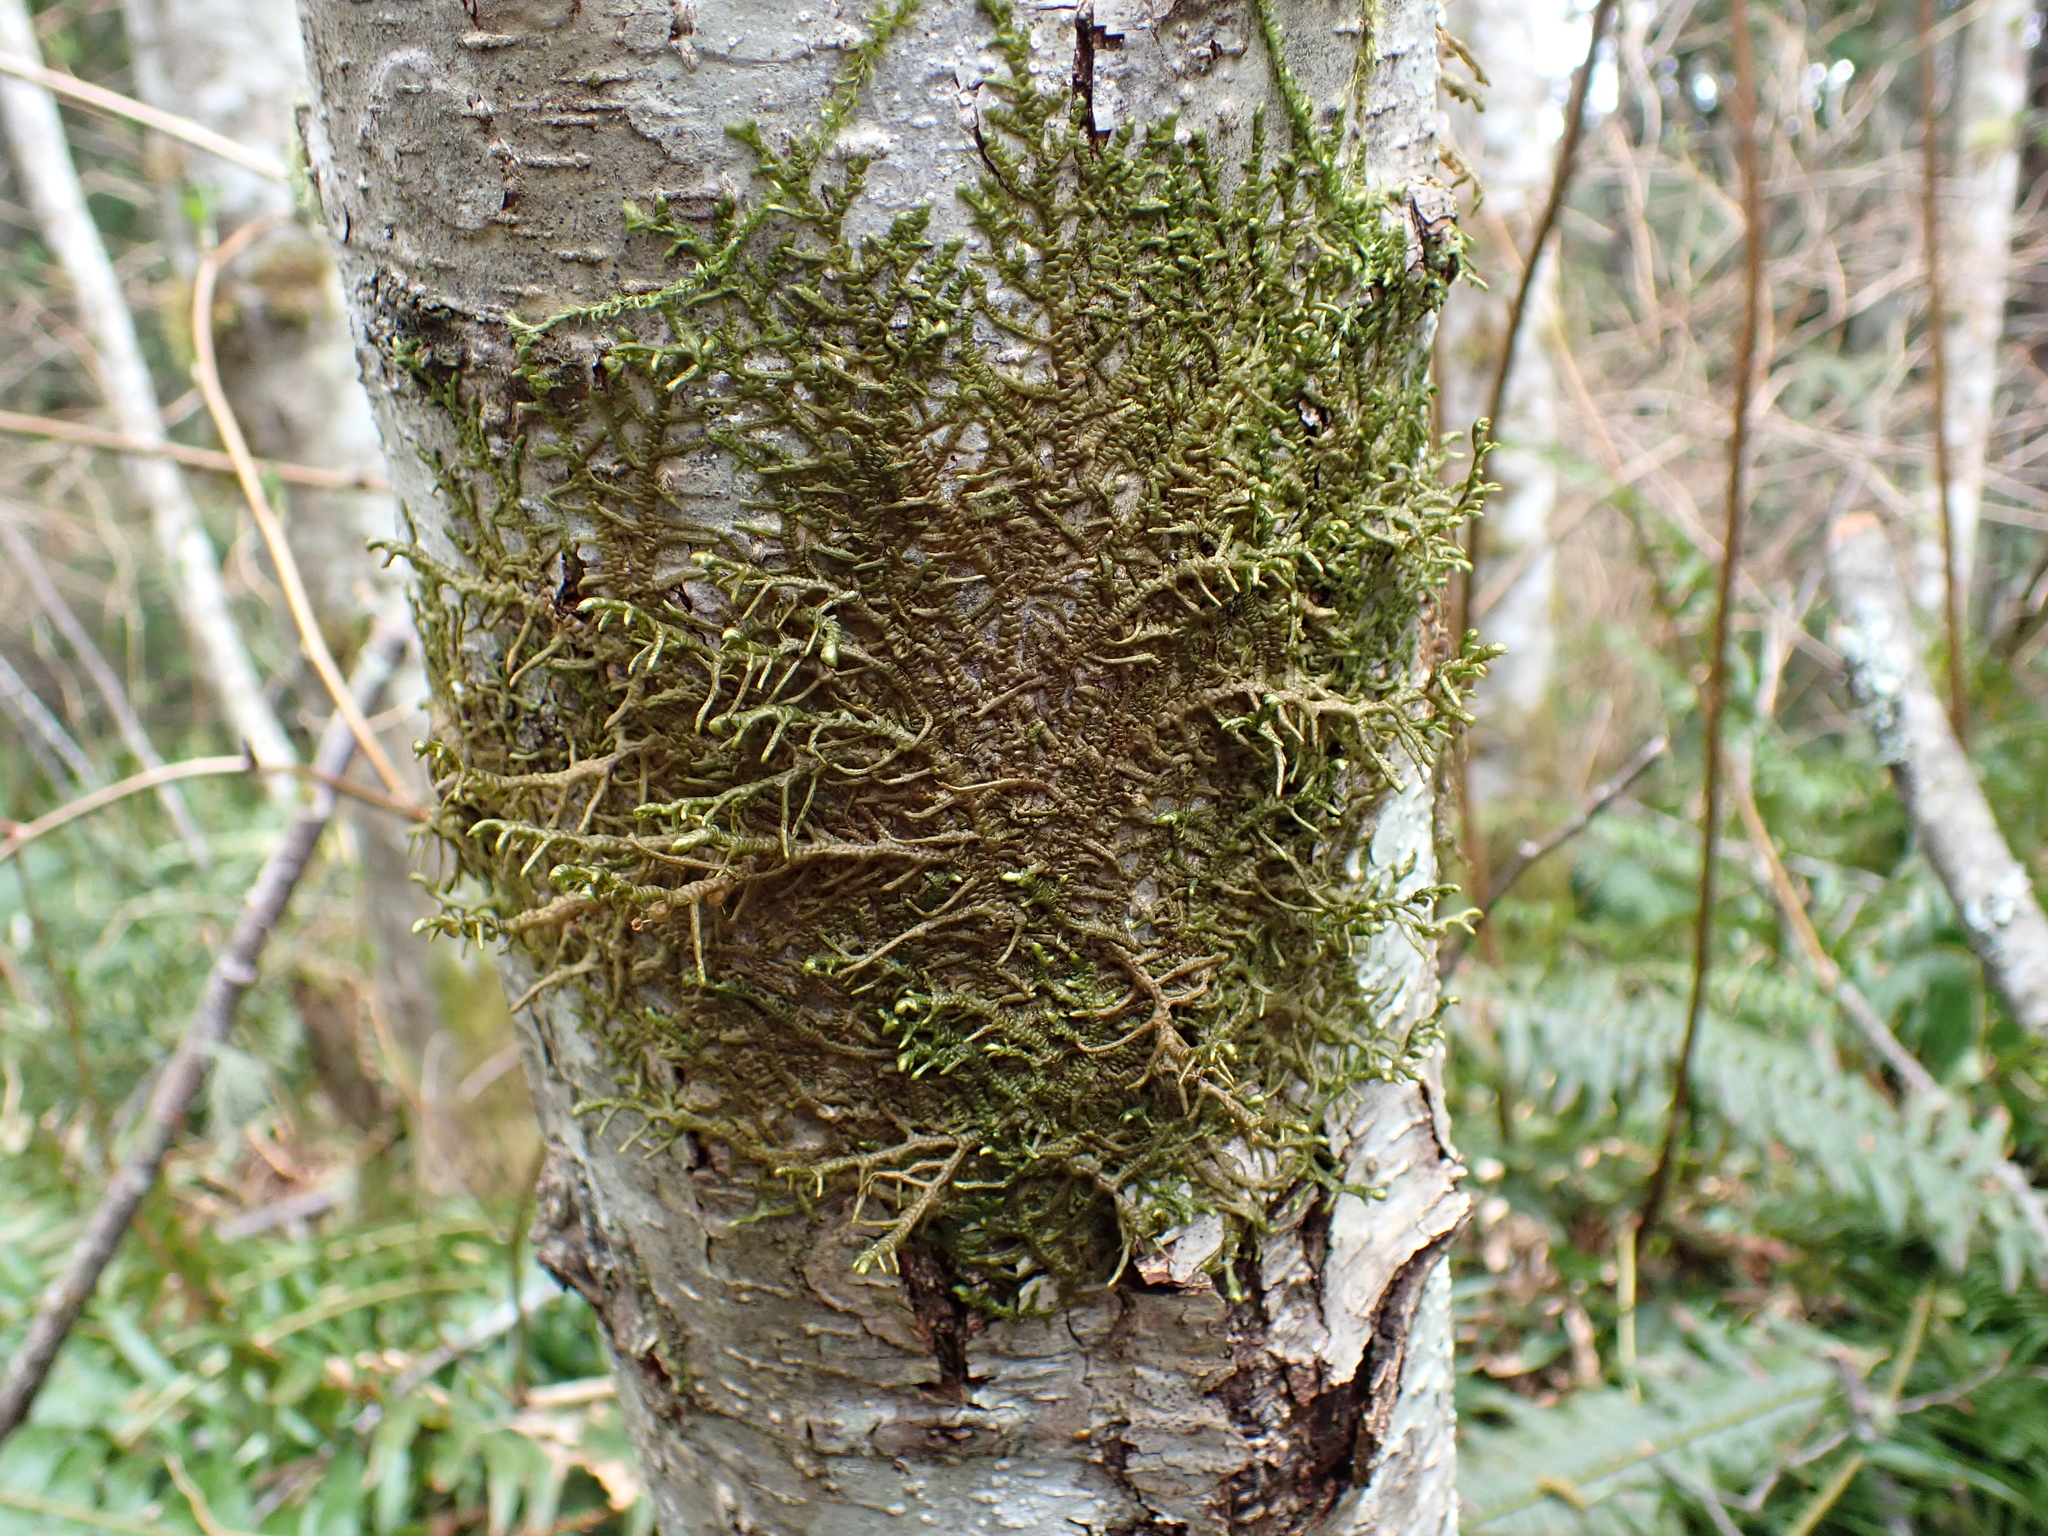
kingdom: Plantae
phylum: Marchantiophyta
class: Jungermanniopsida
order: Porellales
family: Porellaceae
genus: Porella
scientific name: Porella navicularis
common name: Tree ruffle liverwort
